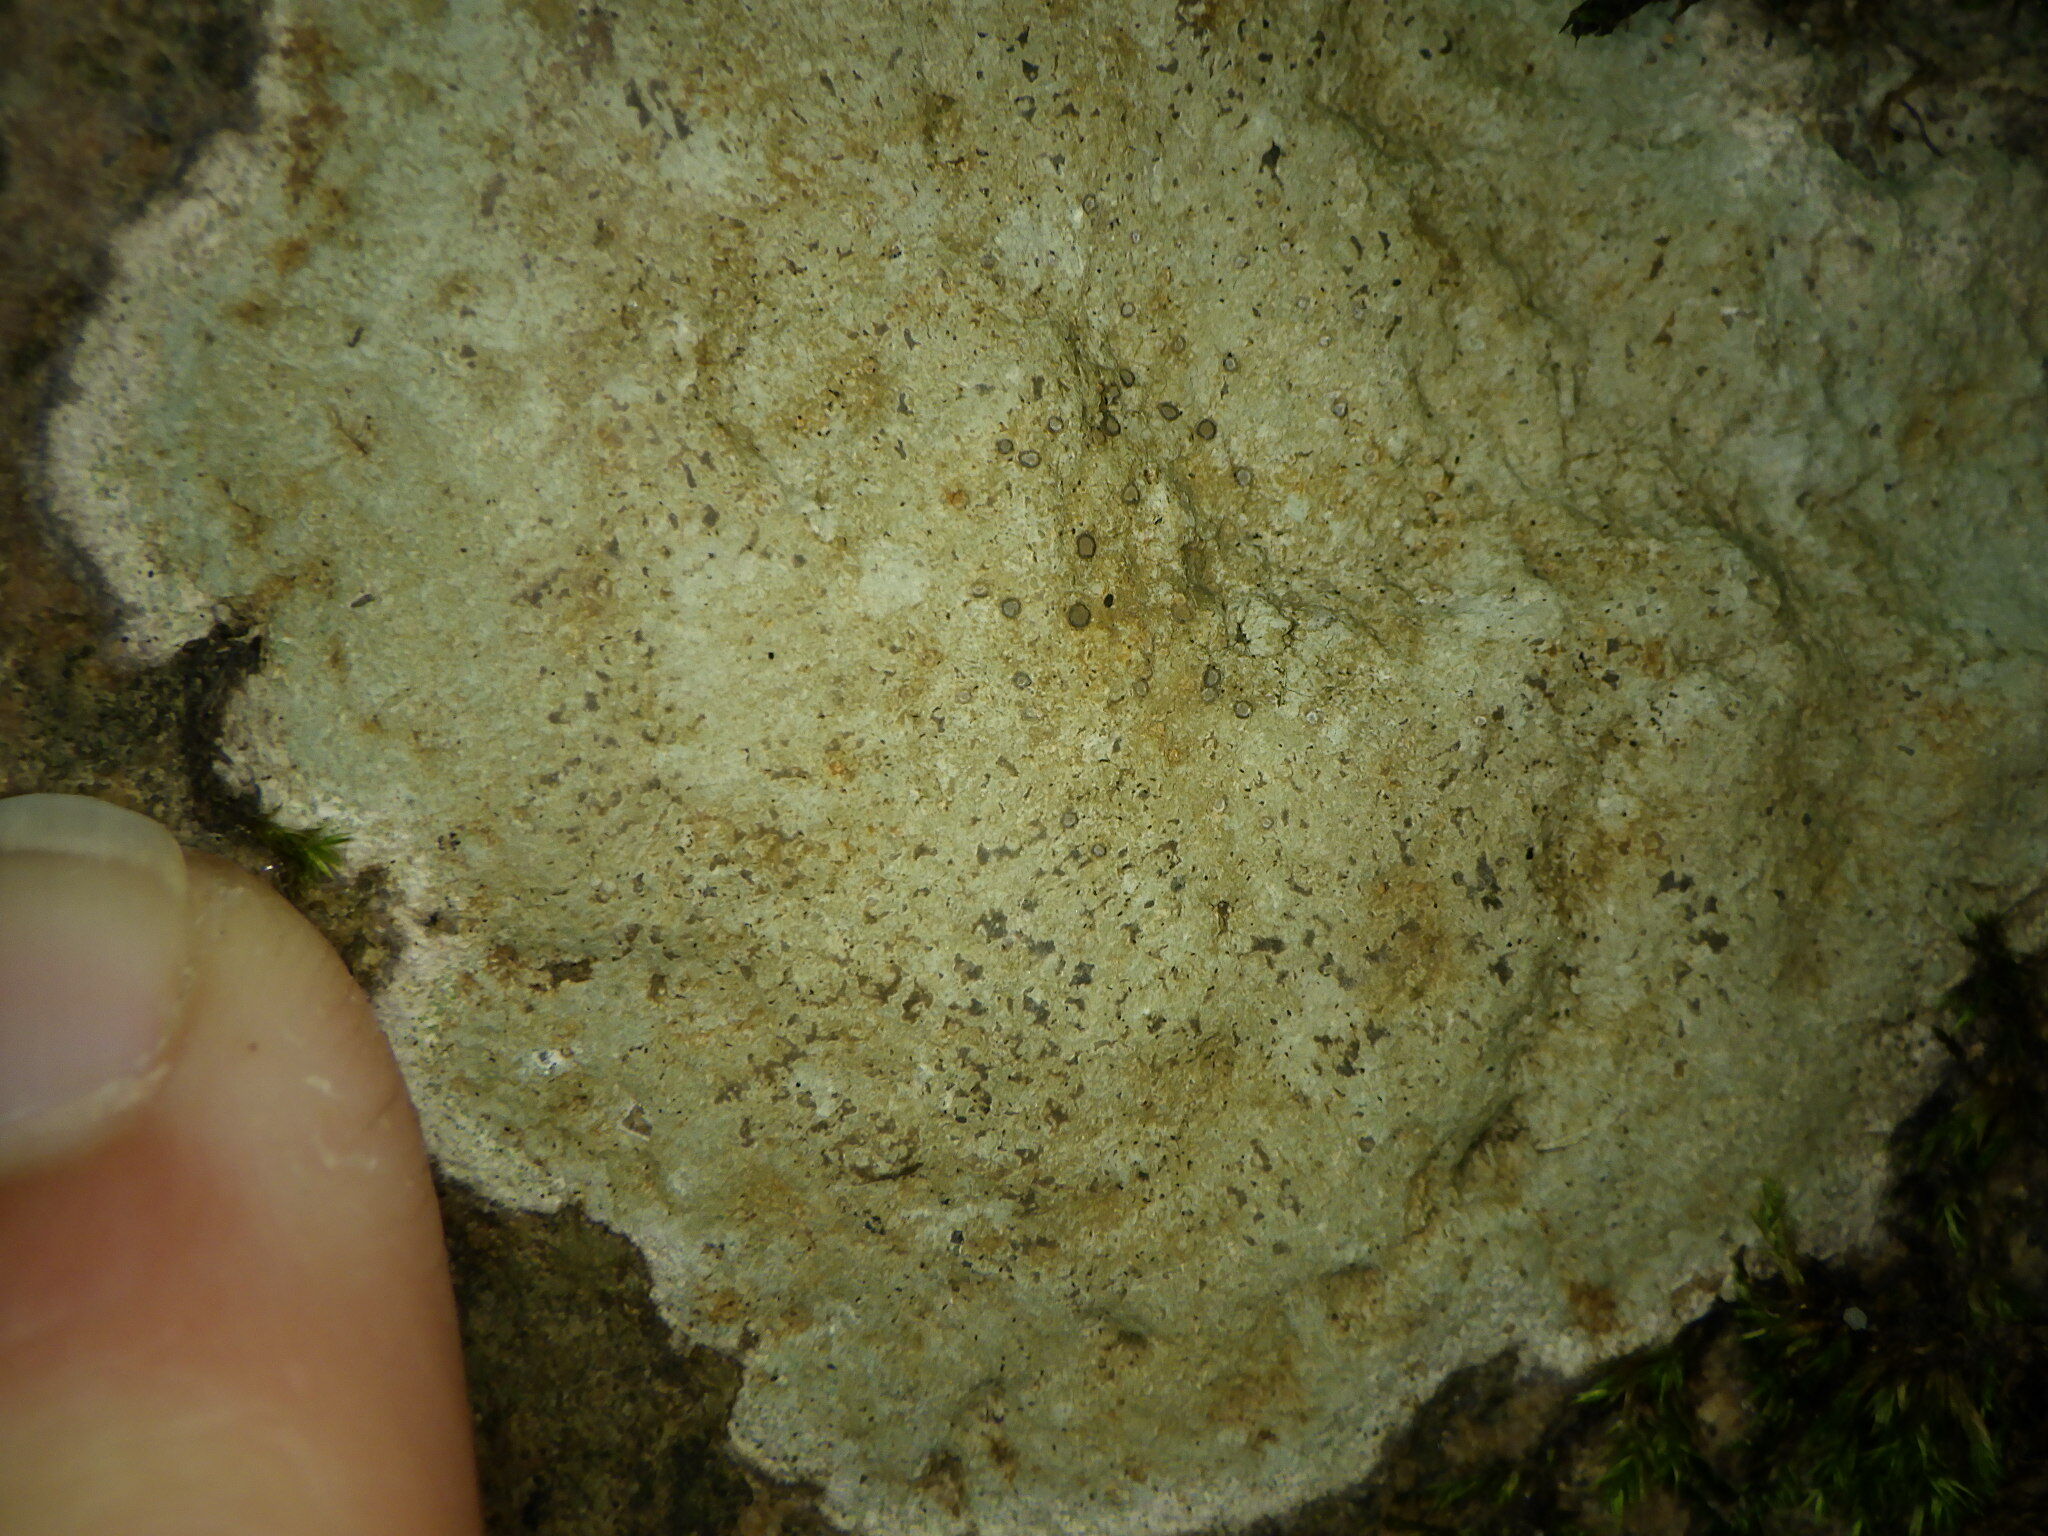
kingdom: Fungi
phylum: Ascomycota
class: Lecanoromycetes
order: Lecideales
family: Lecideaceae
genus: Porpidia
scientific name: Porpidia albocaerulescens
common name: Smokey-eyed boulder lichen
